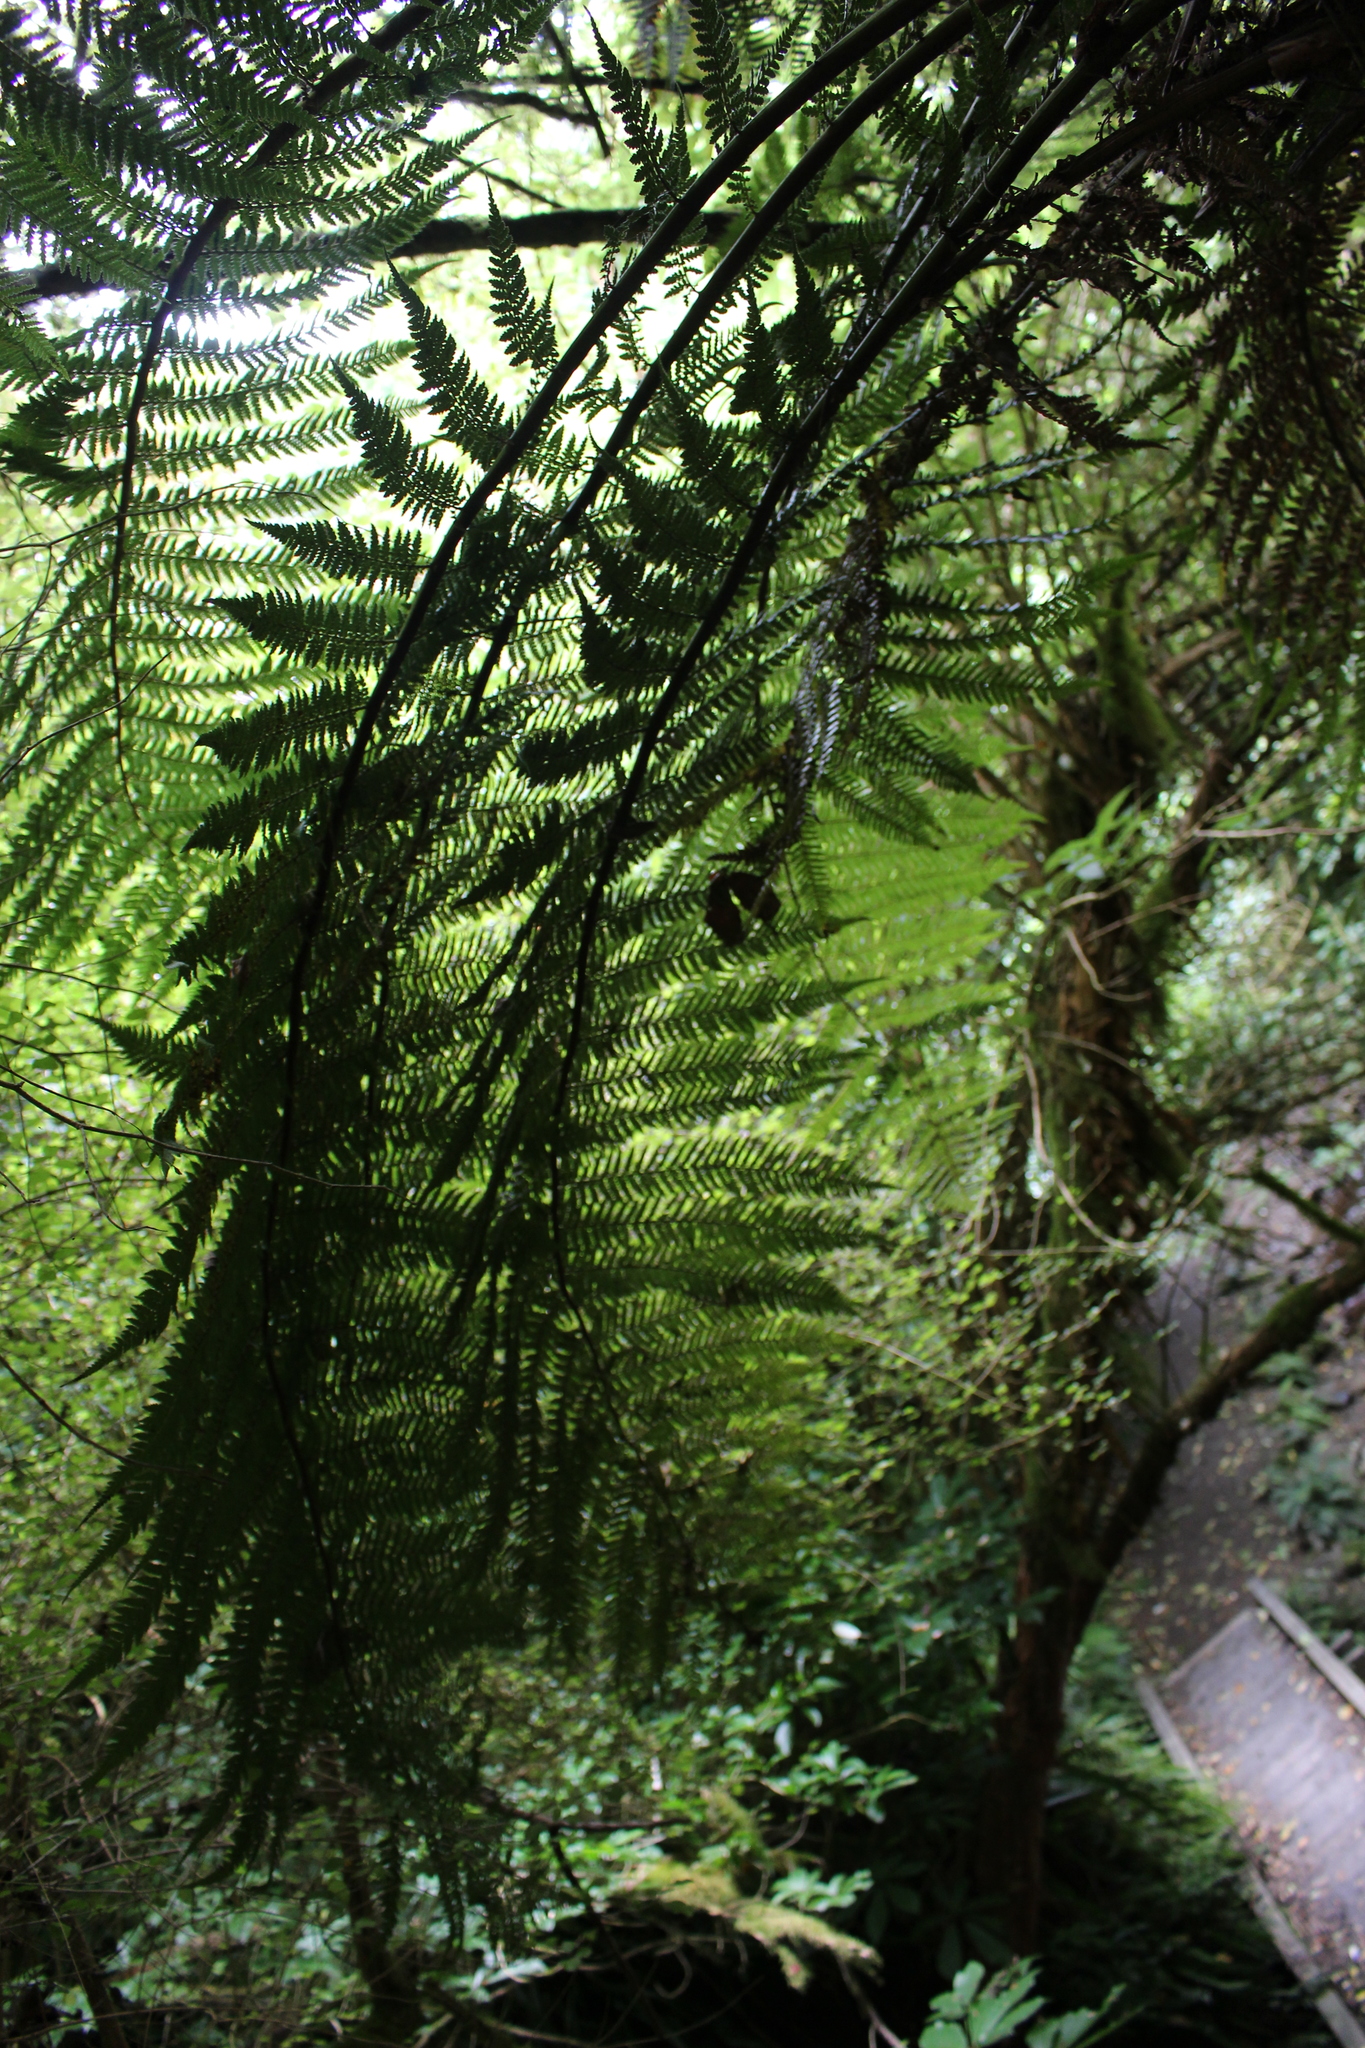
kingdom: Plantae
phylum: Tracheophyta
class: Polypodiopsida
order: Cyatheales
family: Dicksoniaceae
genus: Dicksonia
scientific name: Dicksonia fibrosa
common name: Golden tree fern
